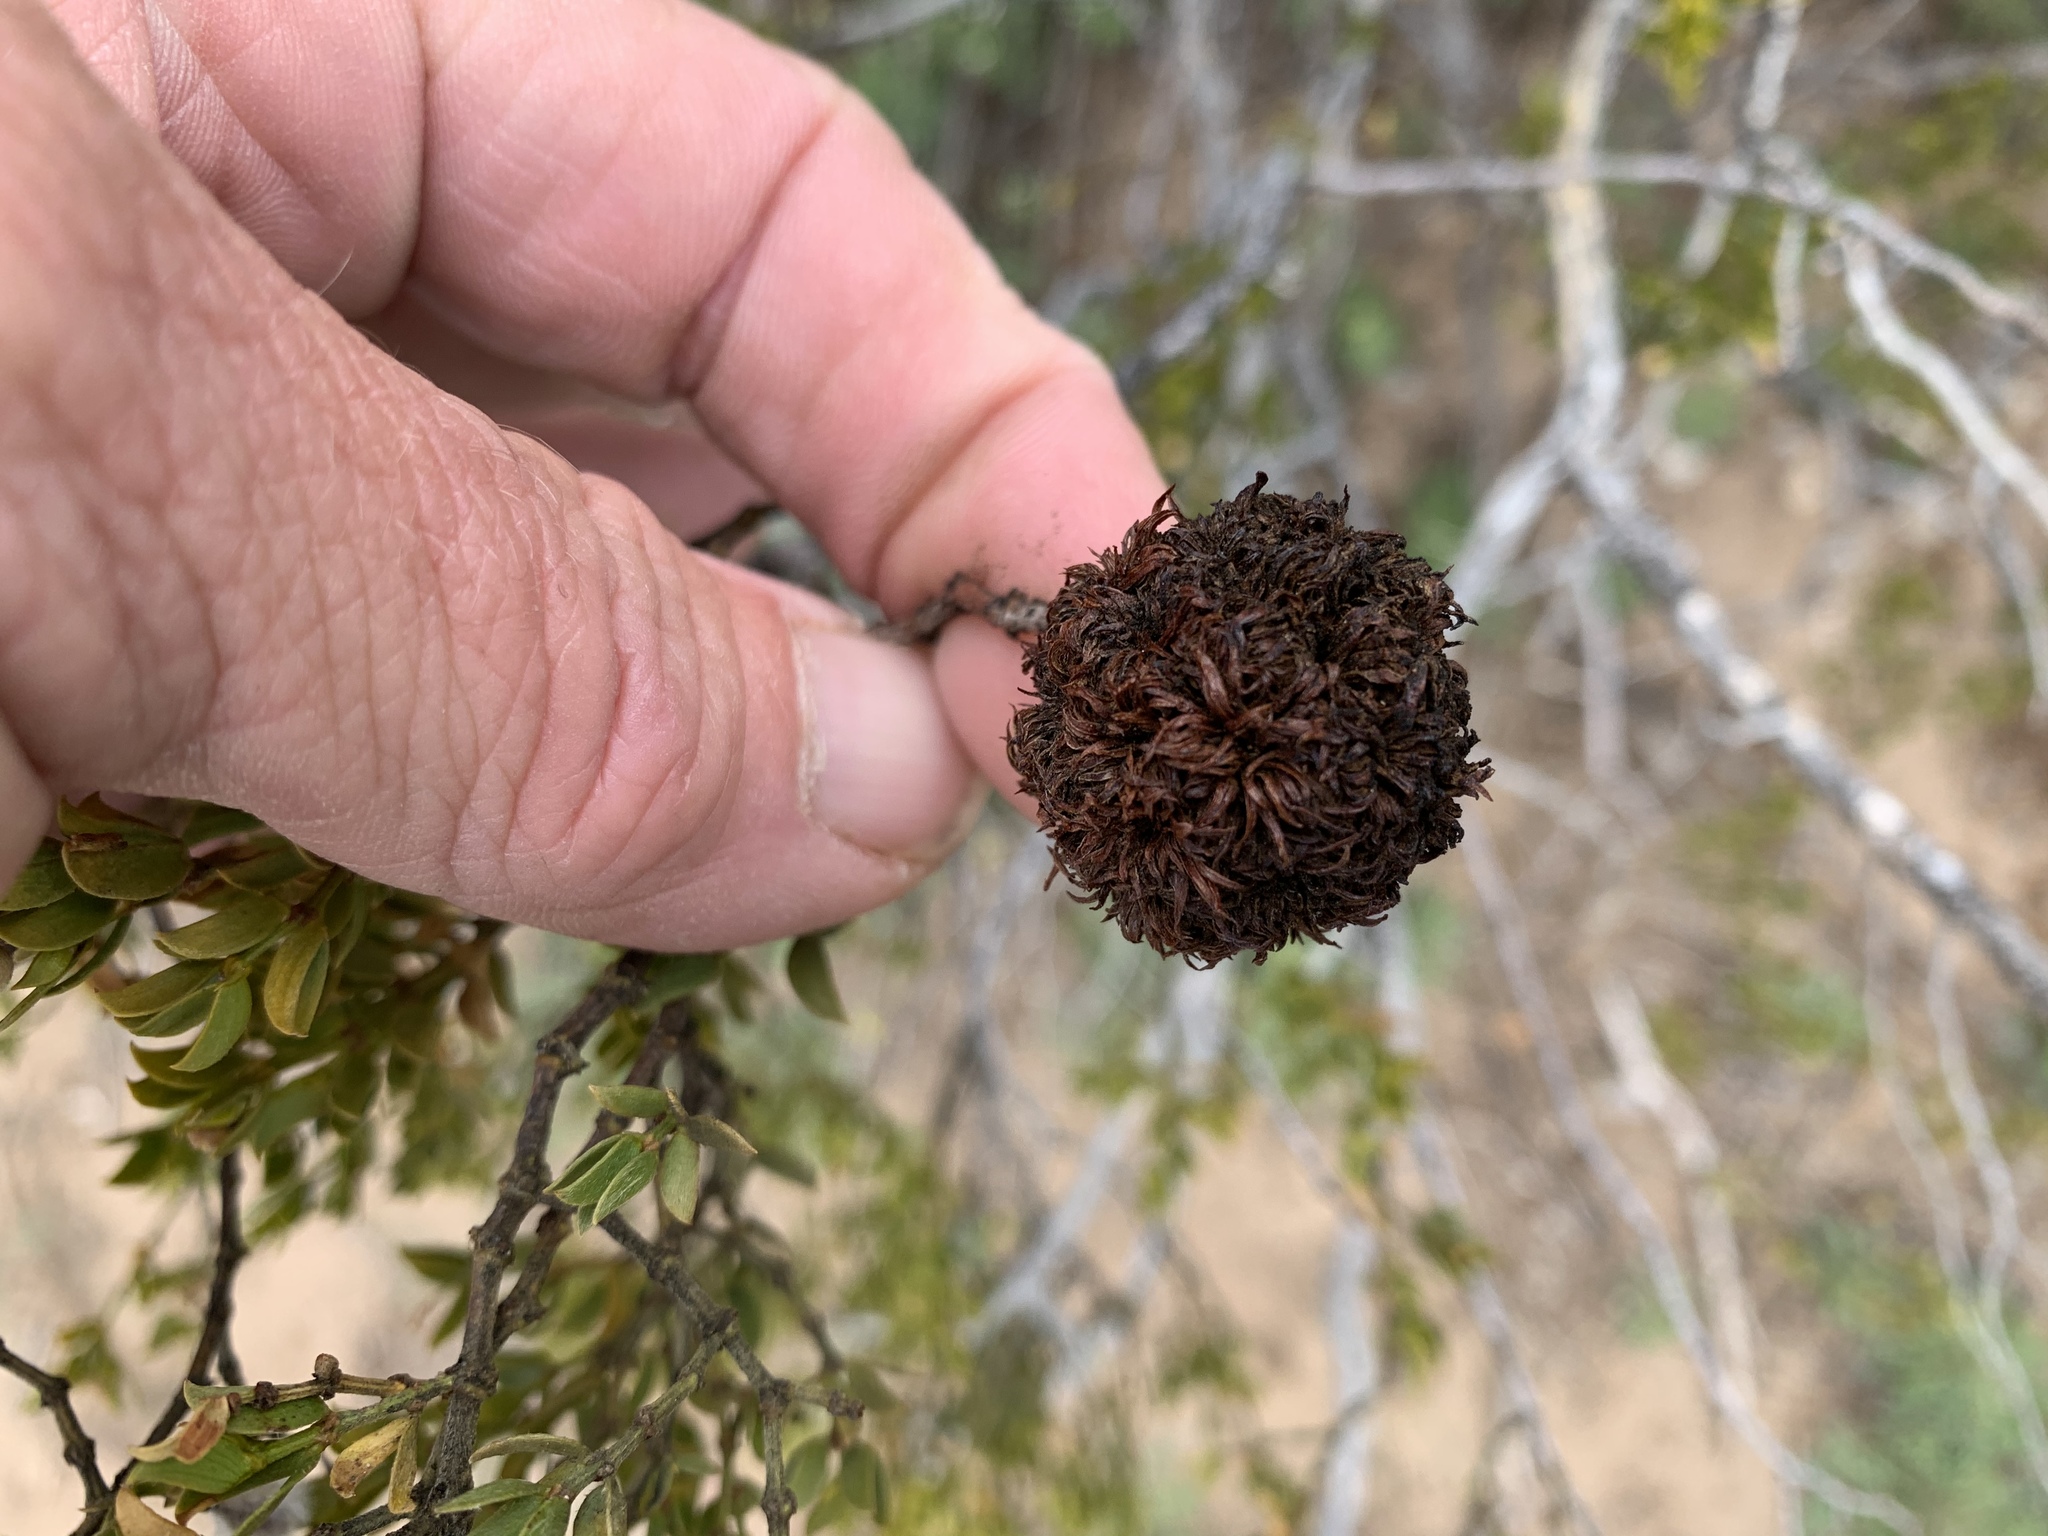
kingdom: Animalia
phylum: Arthropoda
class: Insecta
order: Diptera
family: Cecidomyiidae
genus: Asphondylia
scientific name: Asphondylia auripila
